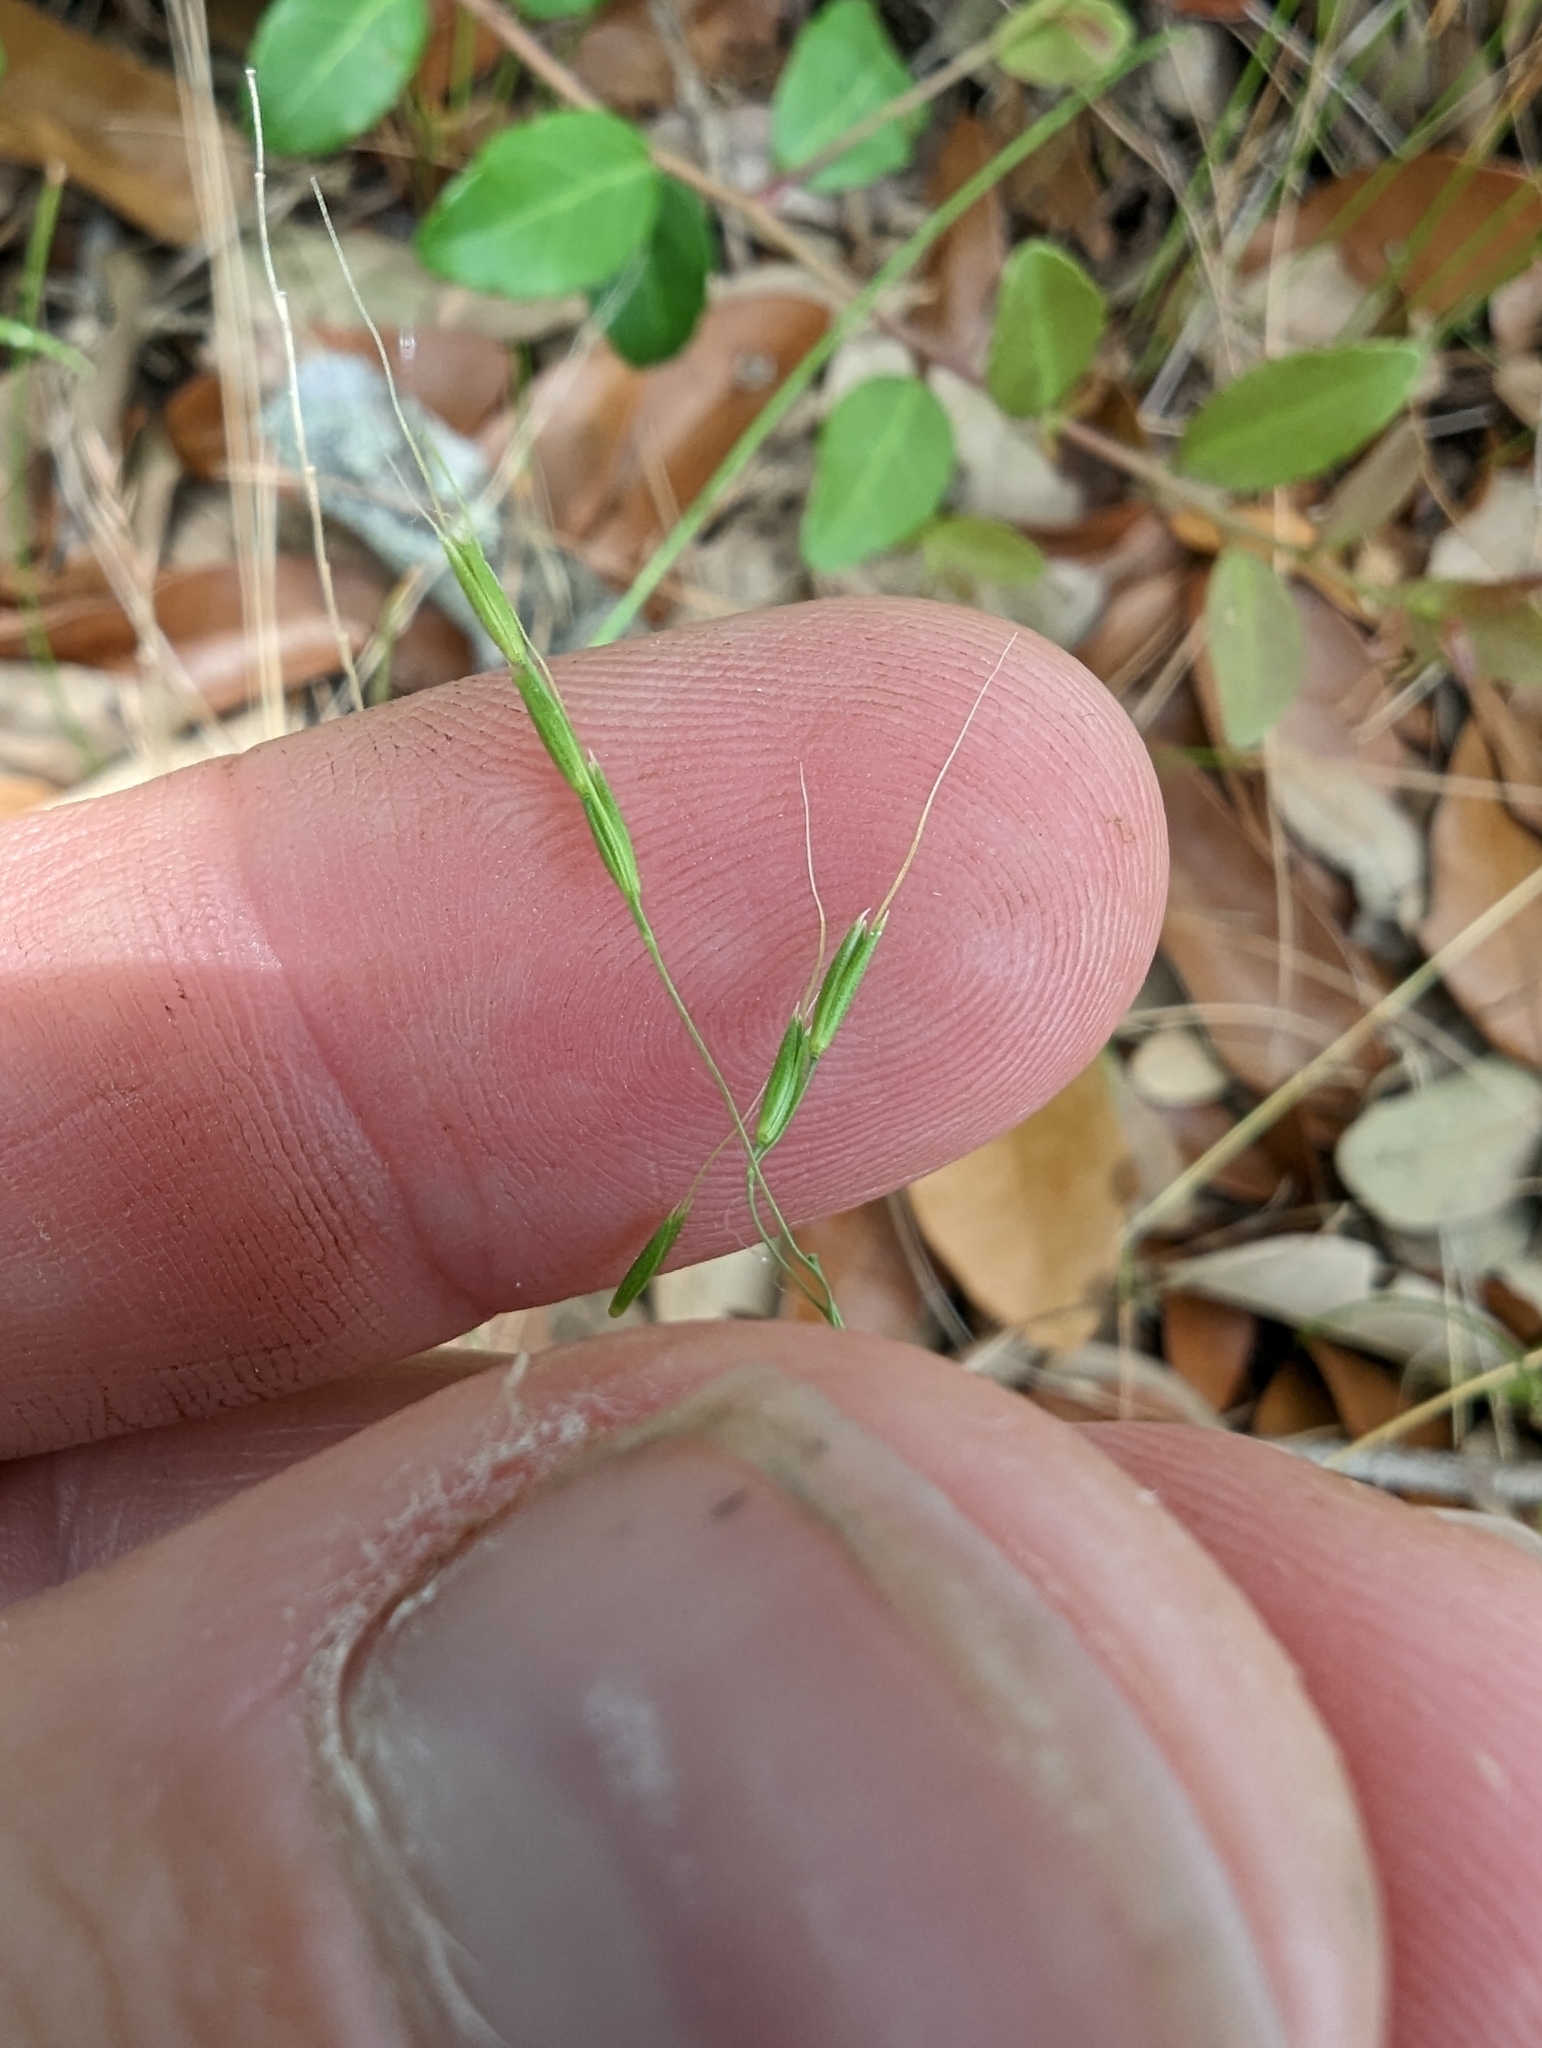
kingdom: Plantae
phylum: Tracheophyta
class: Liliopsida
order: Poales
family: Poaceae
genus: Limnodea
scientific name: Limnodea arkansana
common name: Ozark-grass
